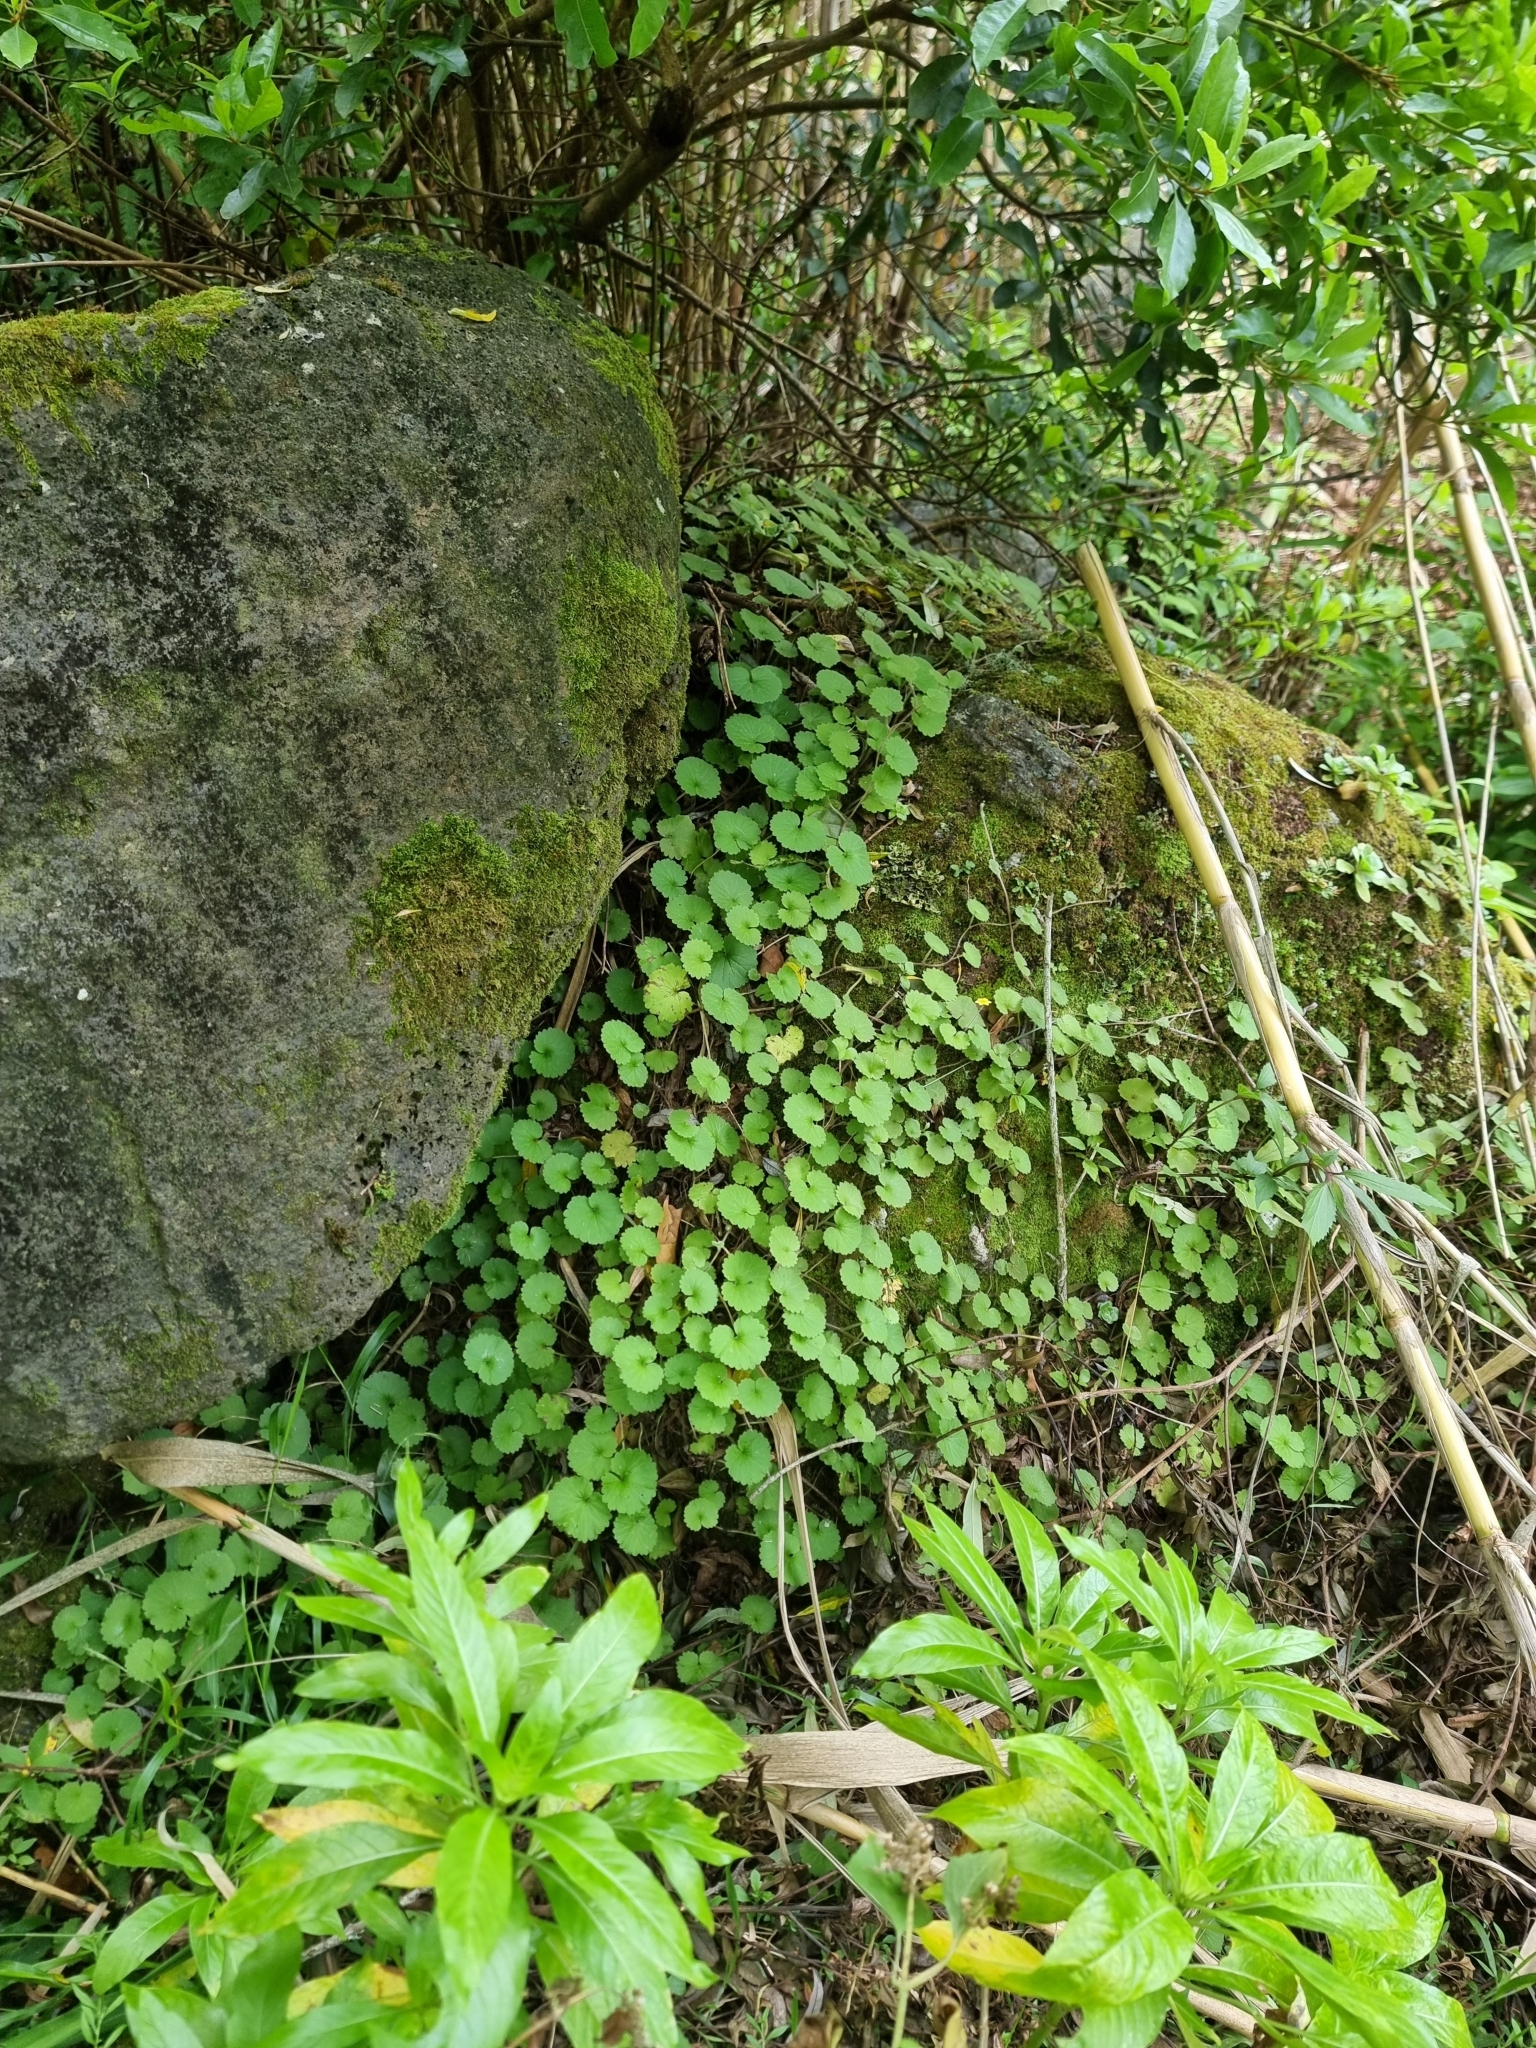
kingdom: Plantae
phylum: Tracheophyta
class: Magnoliopsida
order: Lamiales
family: Plantaginaceae
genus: Sibthorpia
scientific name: Sibthorpia peregrina
